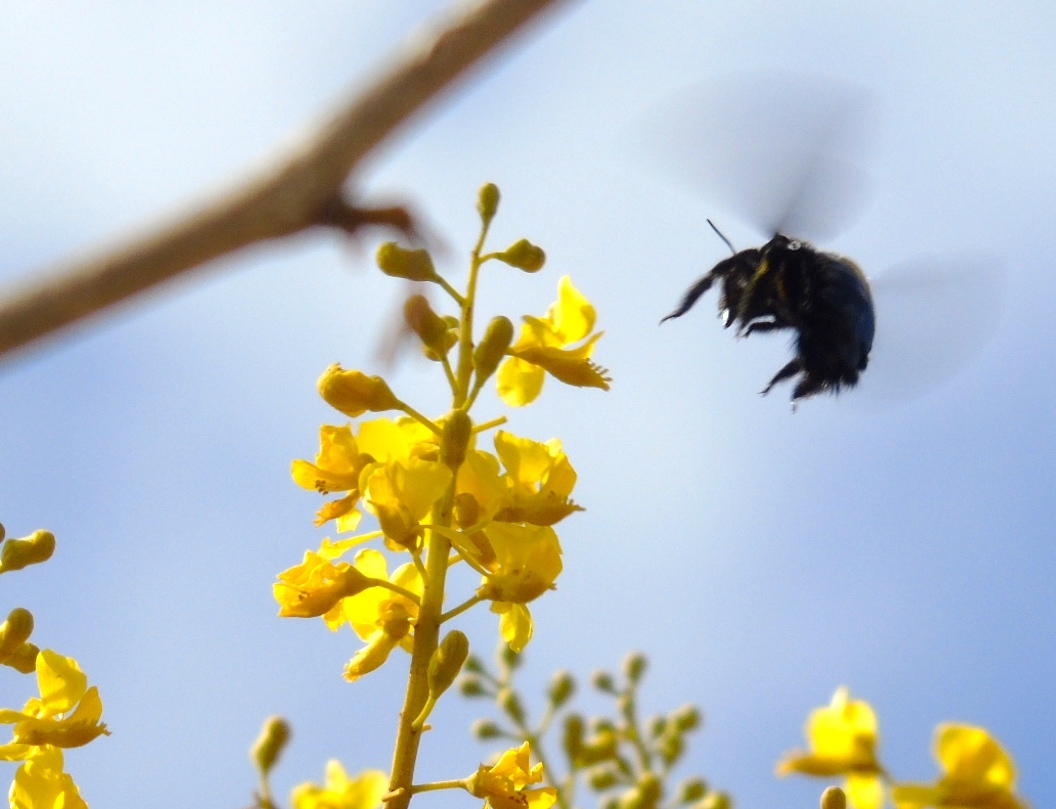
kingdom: Plantae
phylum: Tracheophyta
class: Magnoliopsida
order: Fabales
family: Fabaceae
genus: Coulteria
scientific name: Coulteria platyloba
